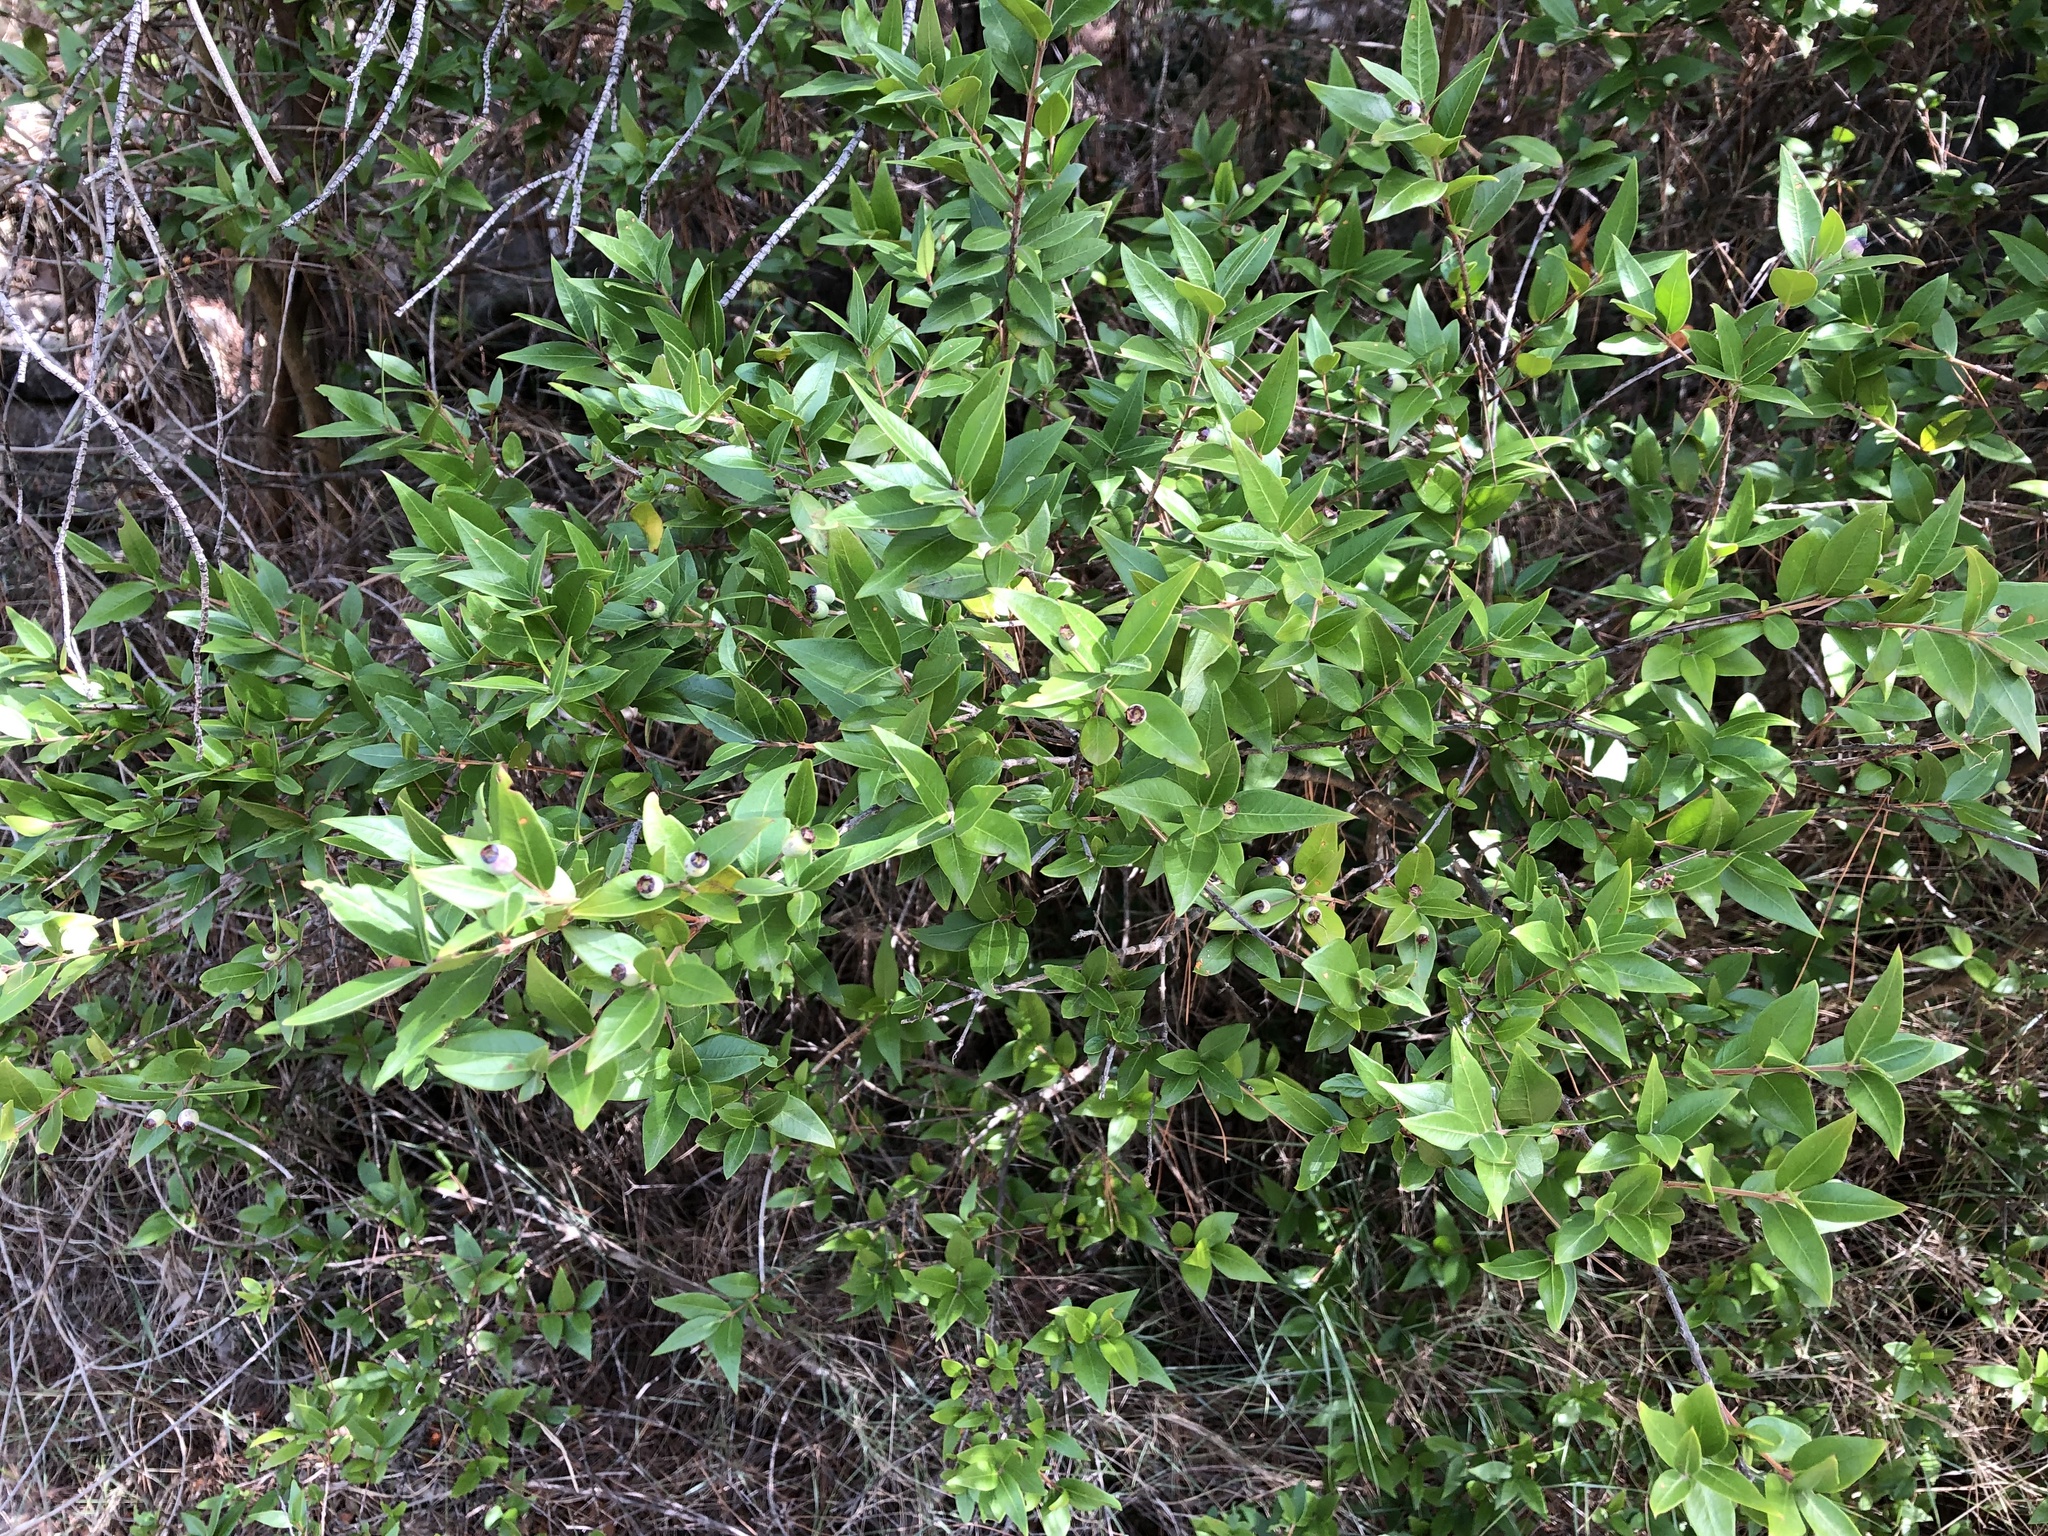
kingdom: Plantae
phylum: Tracheophyta
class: Magnoliopsida
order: Myrtales
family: Myrtaceae
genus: Myrtus
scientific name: Myrtus communis
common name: Myrtle
